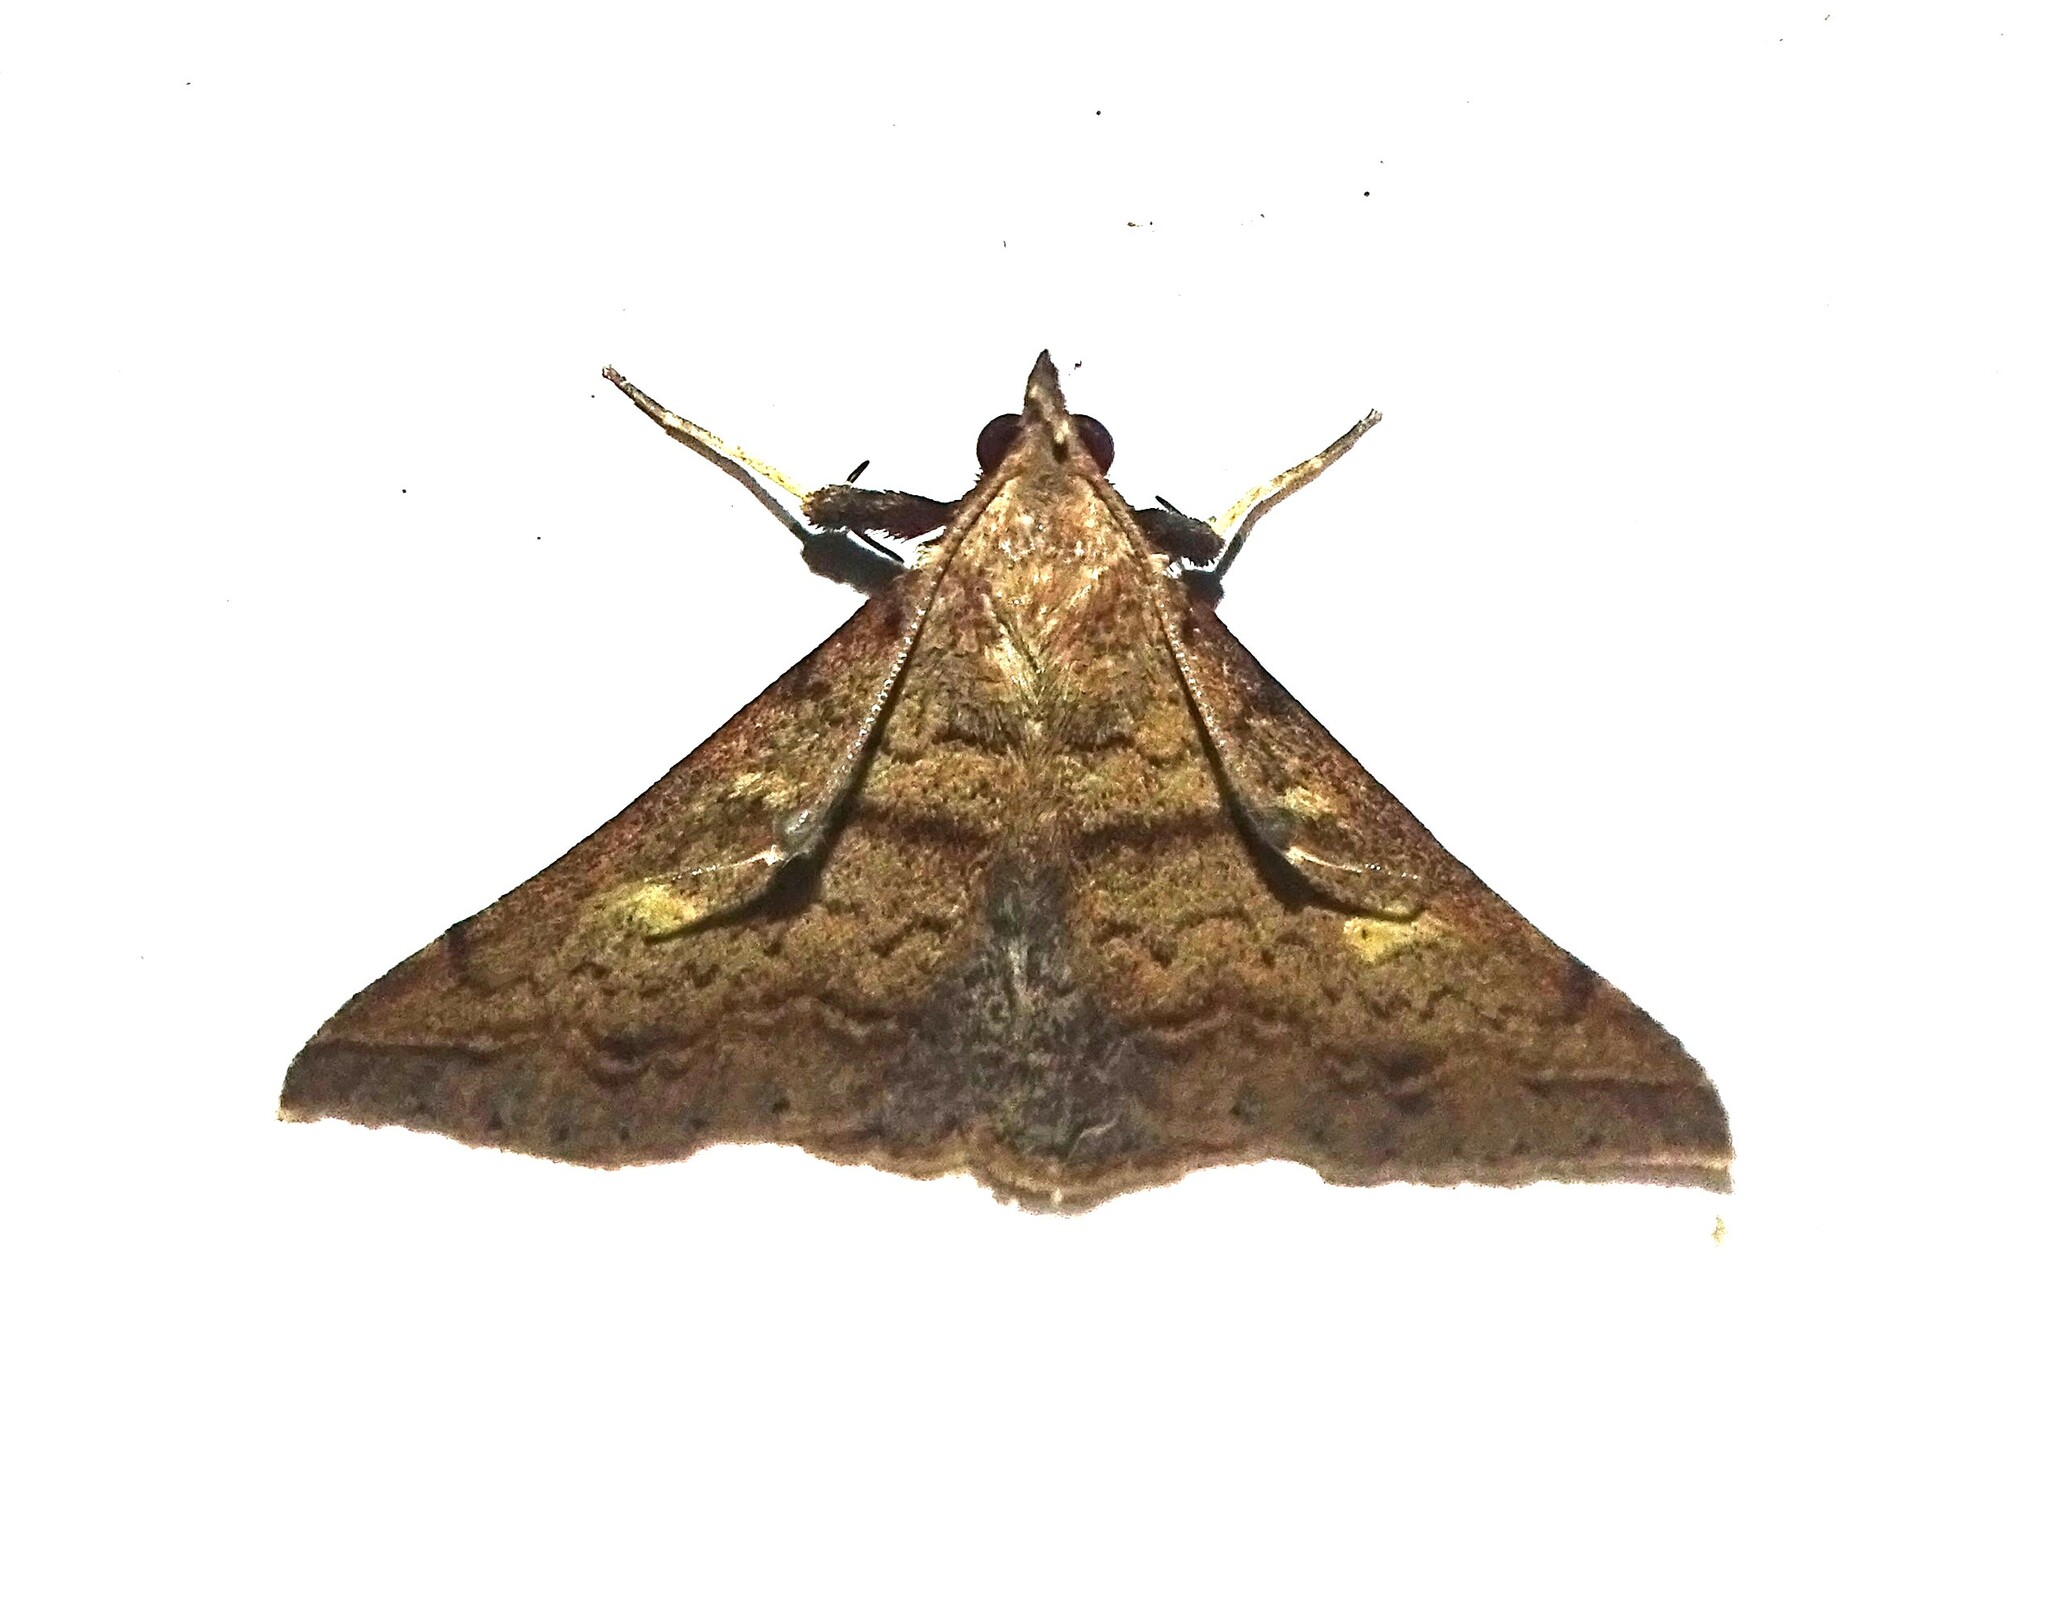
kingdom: Animalia
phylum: Arthropoda
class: Insecta
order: Lepidoptera
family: Erebidae
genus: Renia
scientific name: Renia discoloralis
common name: Discolored renia moth
